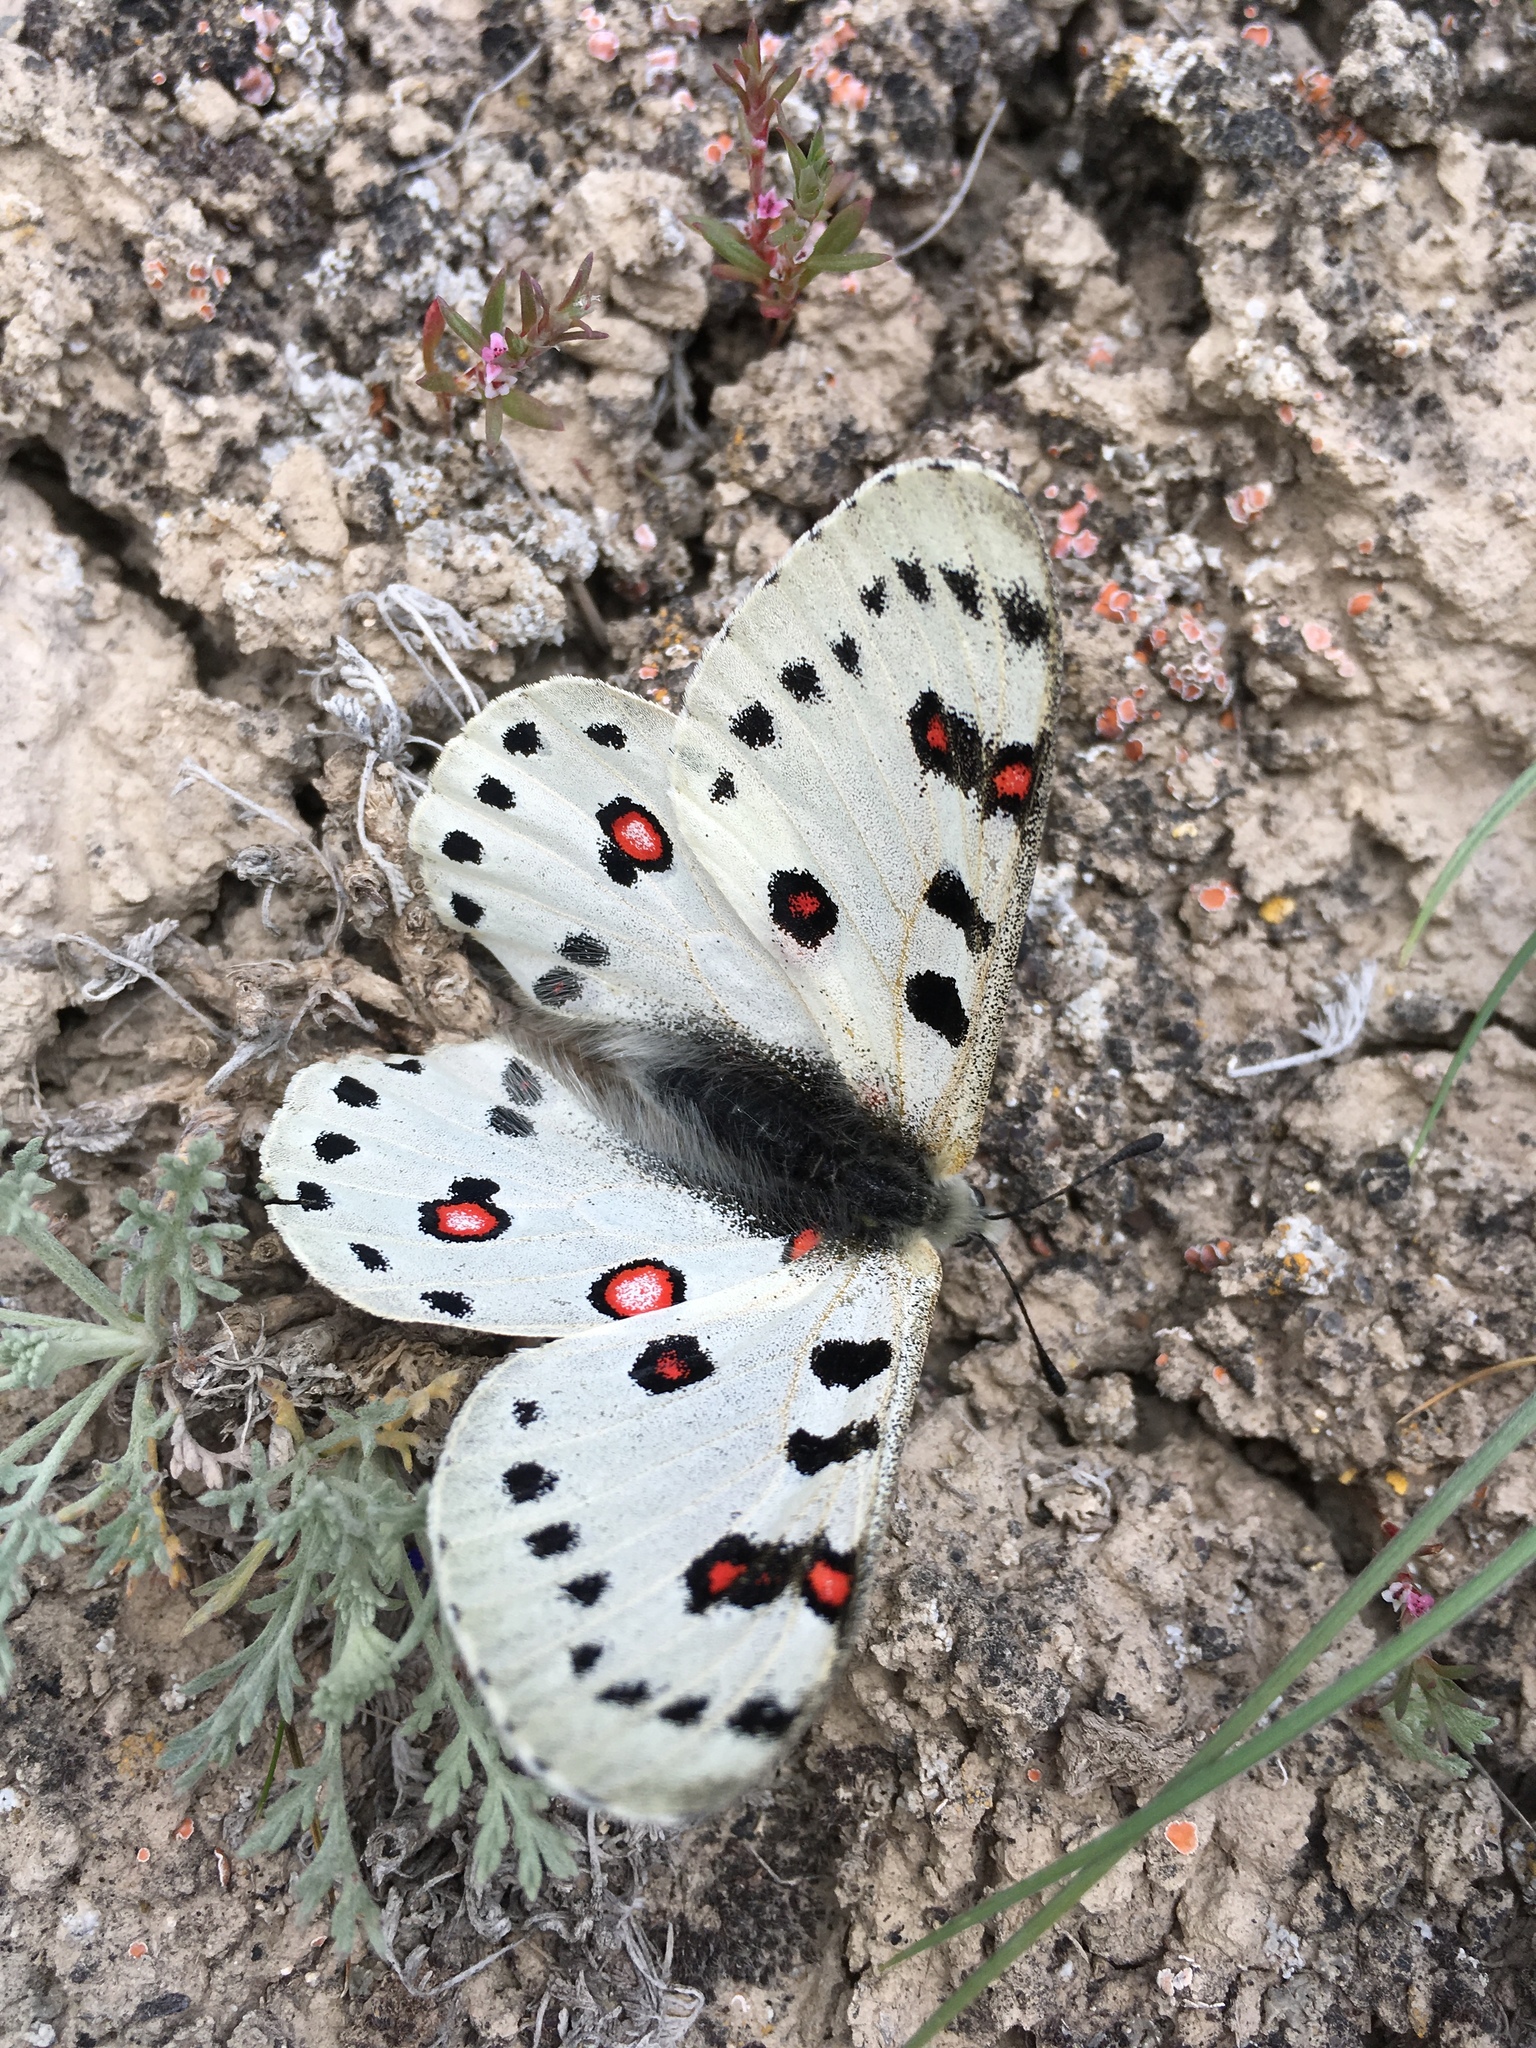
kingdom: Animalia
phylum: Arthropoda
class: Insecta
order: Lepidoptera
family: Papilionidae
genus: Parnassius
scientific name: Parnassius apollonius
